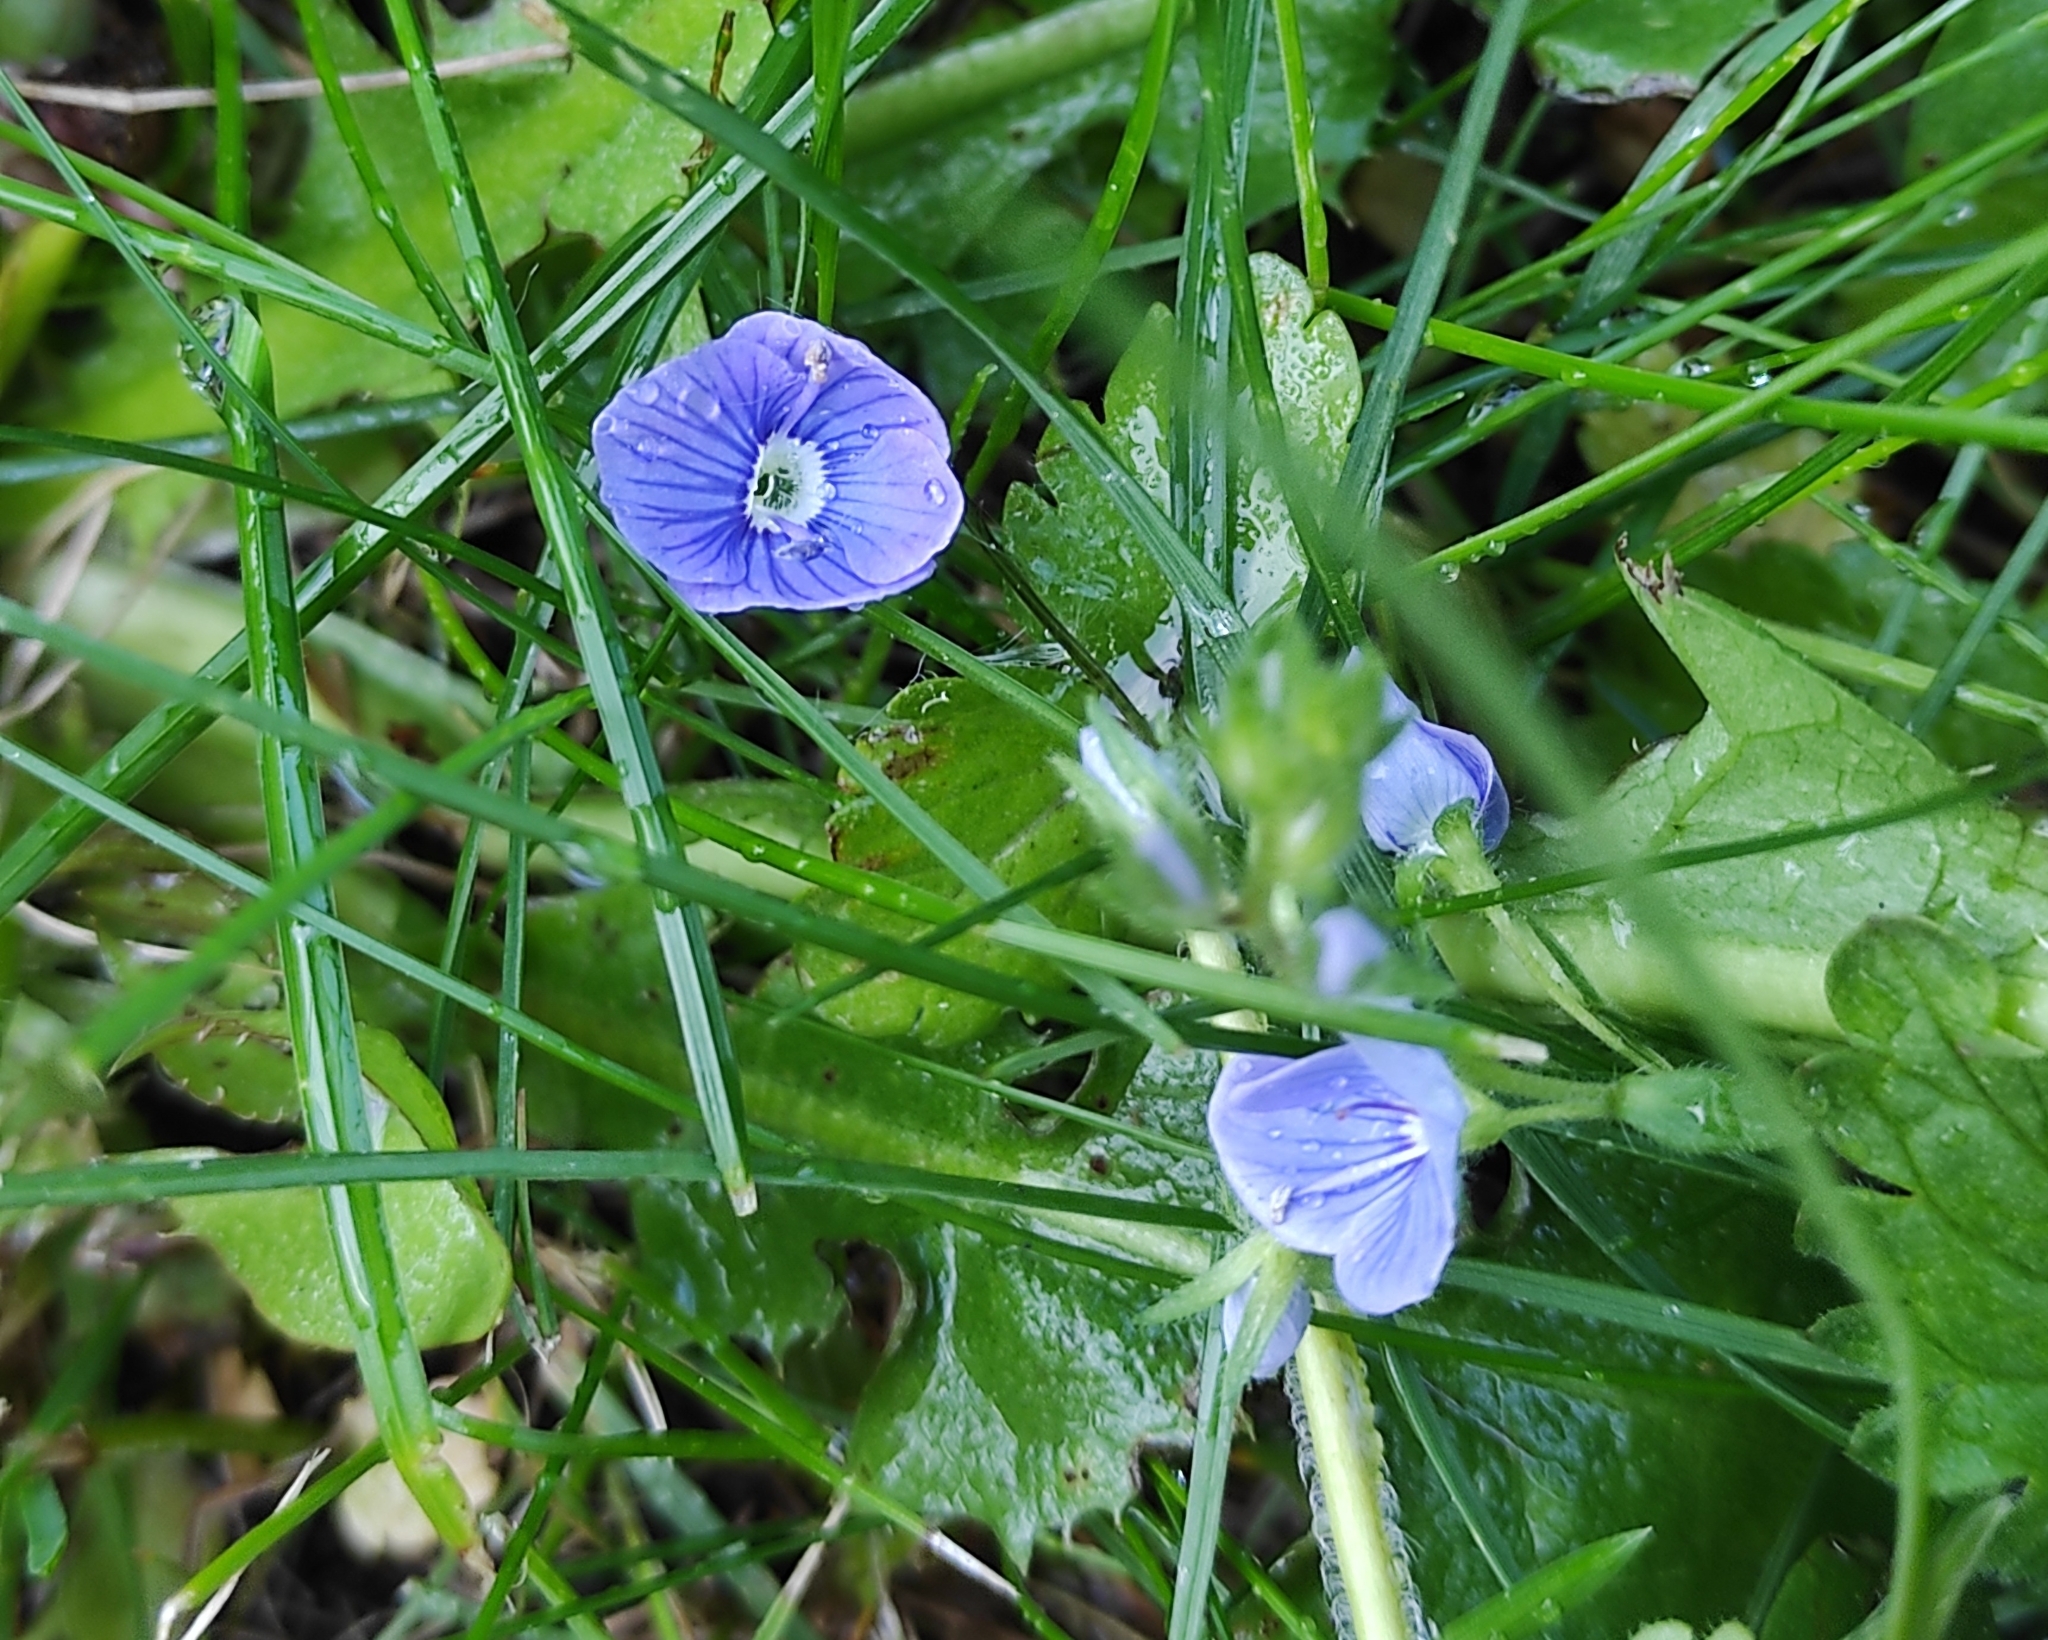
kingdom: Plantae
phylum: Tracheophyta
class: Magnoliopsida
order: Lamiales
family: Plantaginaceae
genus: Veronica
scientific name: Veronica chamaedrys
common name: Germander speedwell
